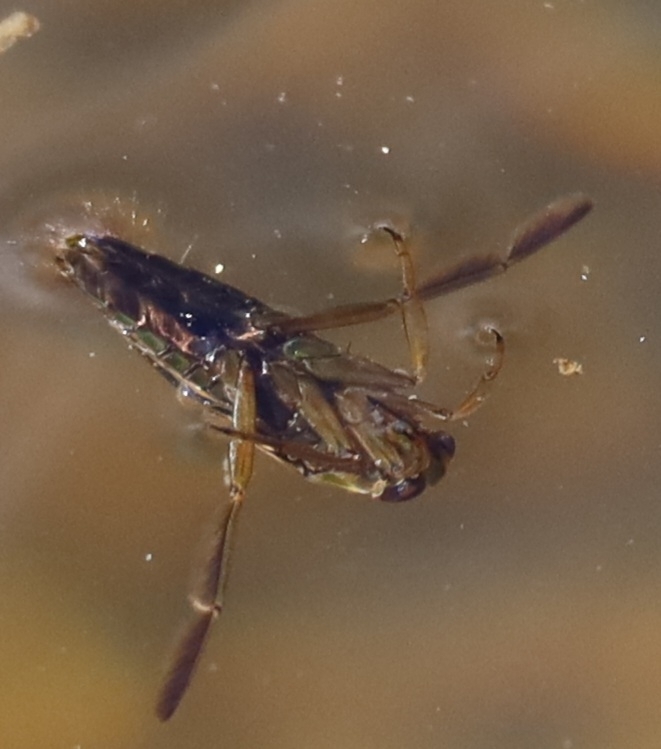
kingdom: Animalia
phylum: Arthropoda
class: Insecta
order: Hemiptera
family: Notonectidae
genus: Notonecta
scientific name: Notonecta
